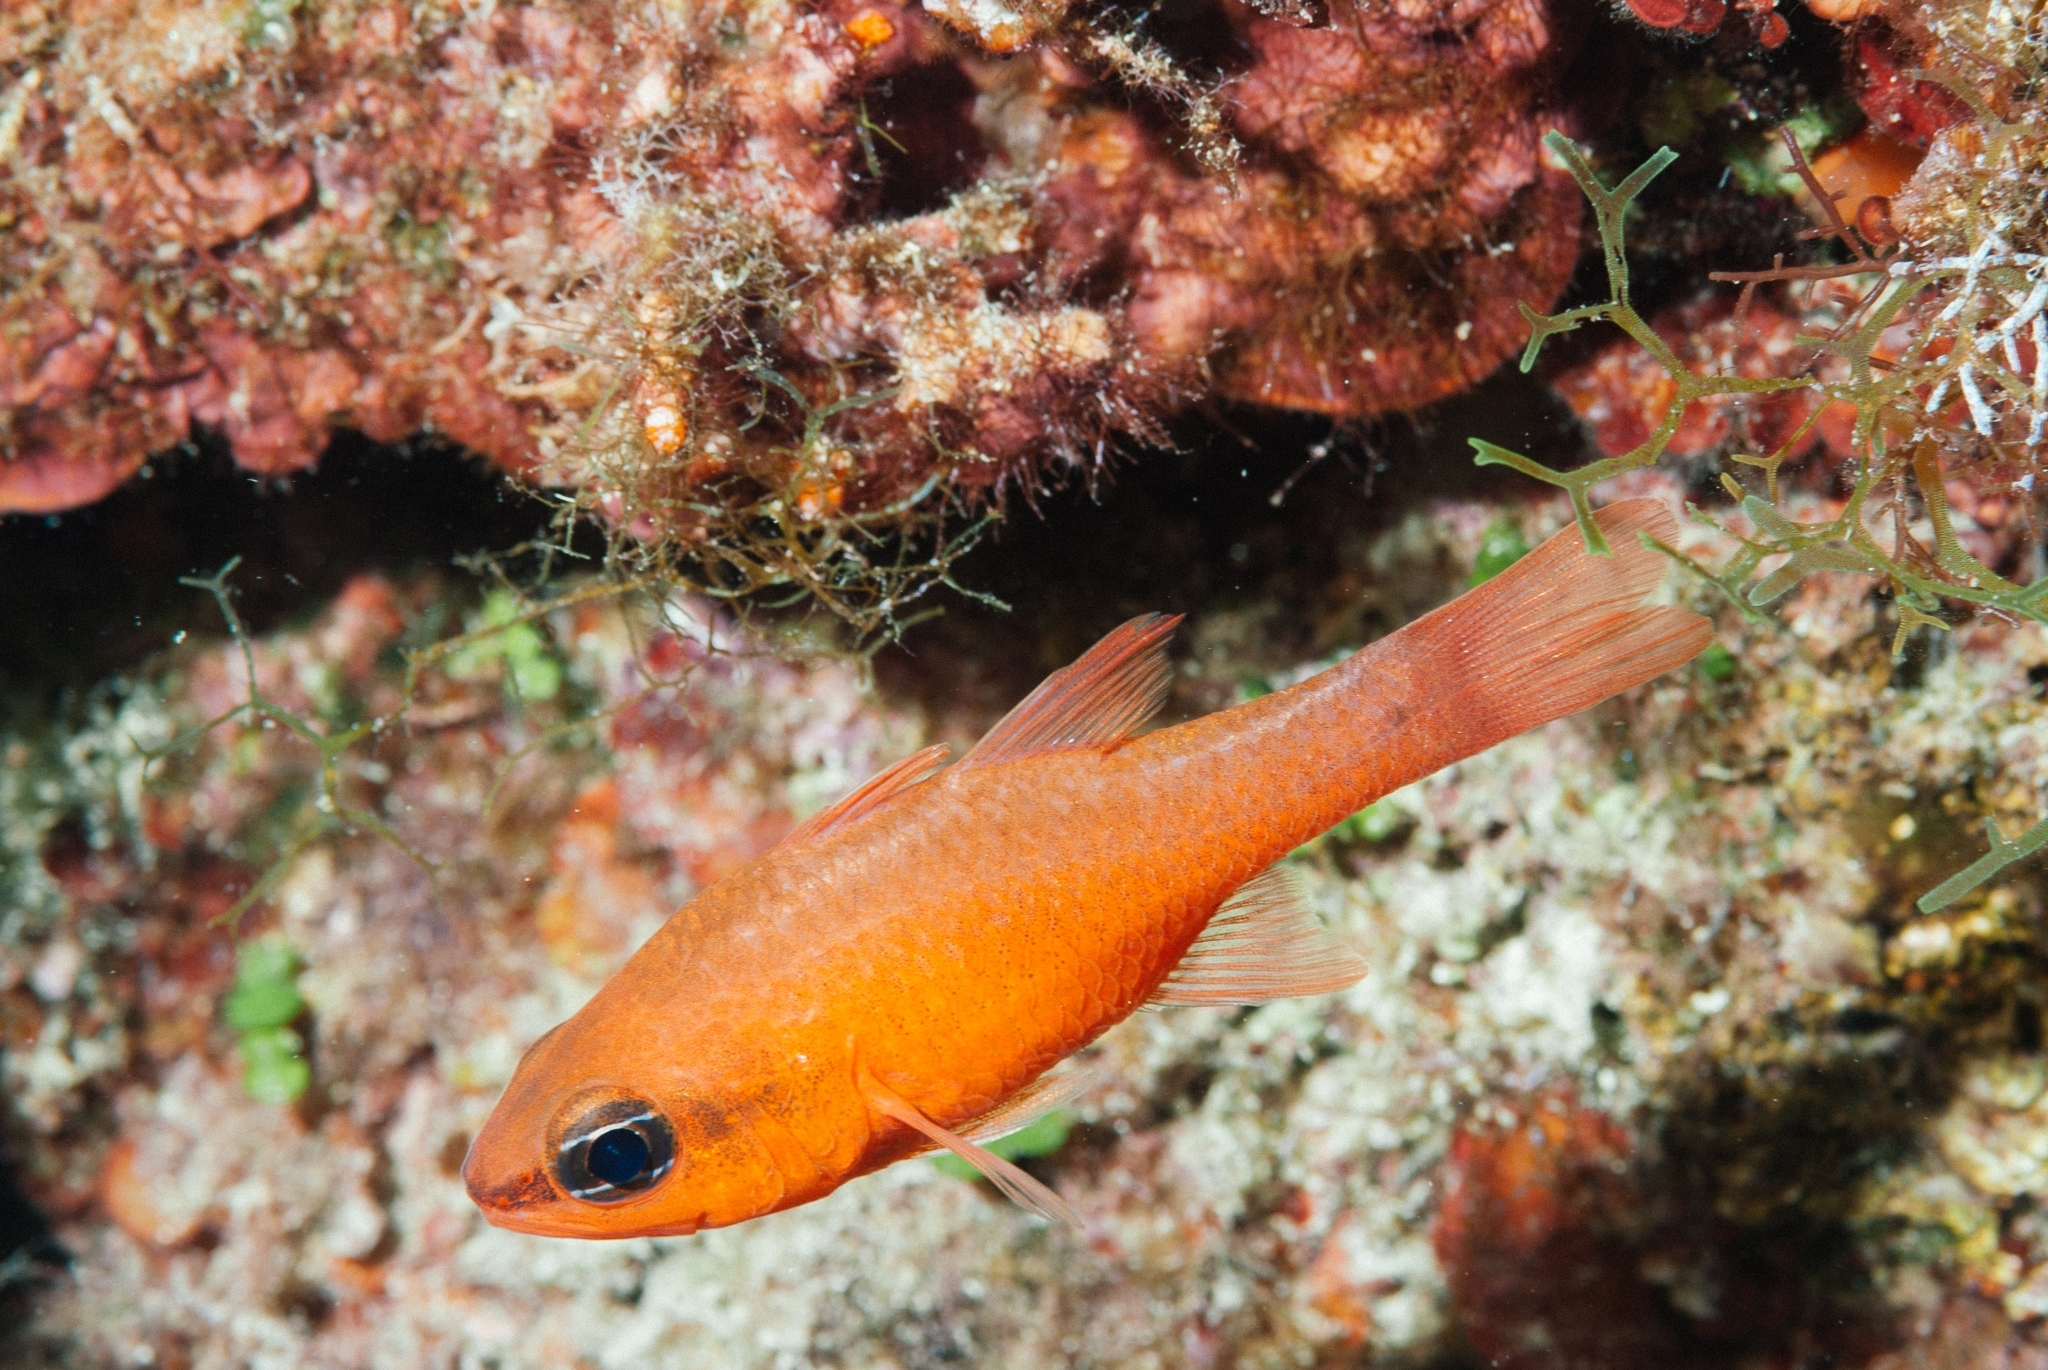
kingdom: Animalia
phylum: Chordata
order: Perciformes
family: Apogonidae
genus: Apogon
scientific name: Apogon imberbis
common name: Cardinal fish
